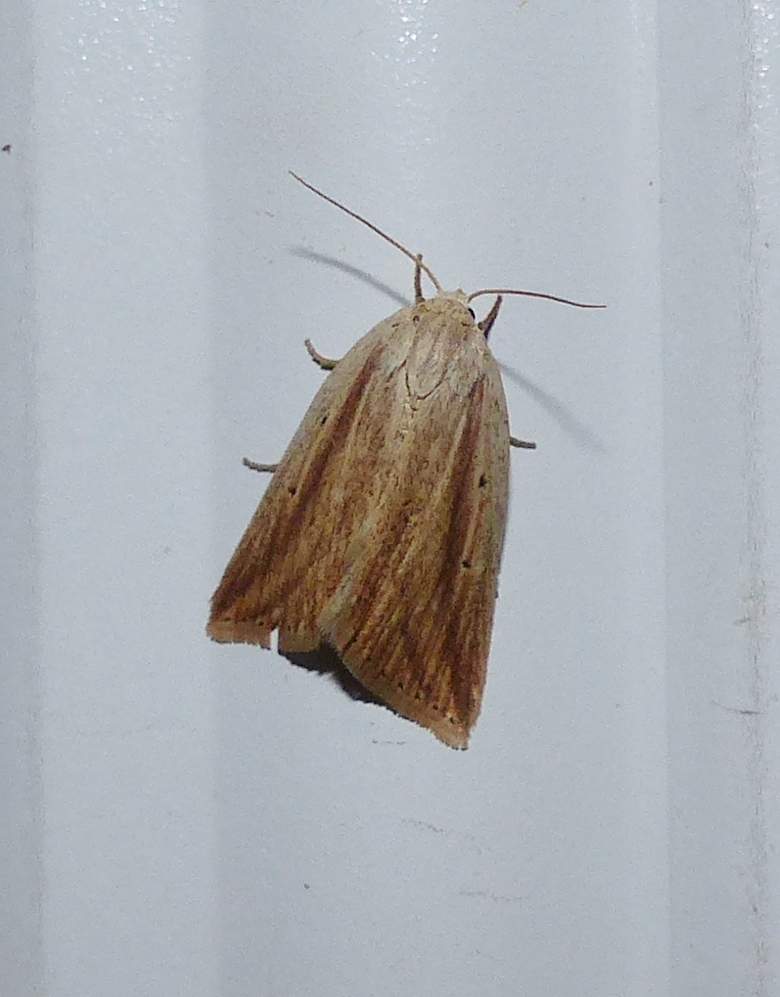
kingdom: Animalia
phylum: Arthropoda
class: Insecta
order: Lepidoptera
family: Noctuidae
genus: Amolita
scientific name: Amolita fessa
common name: Feeble grass moth
